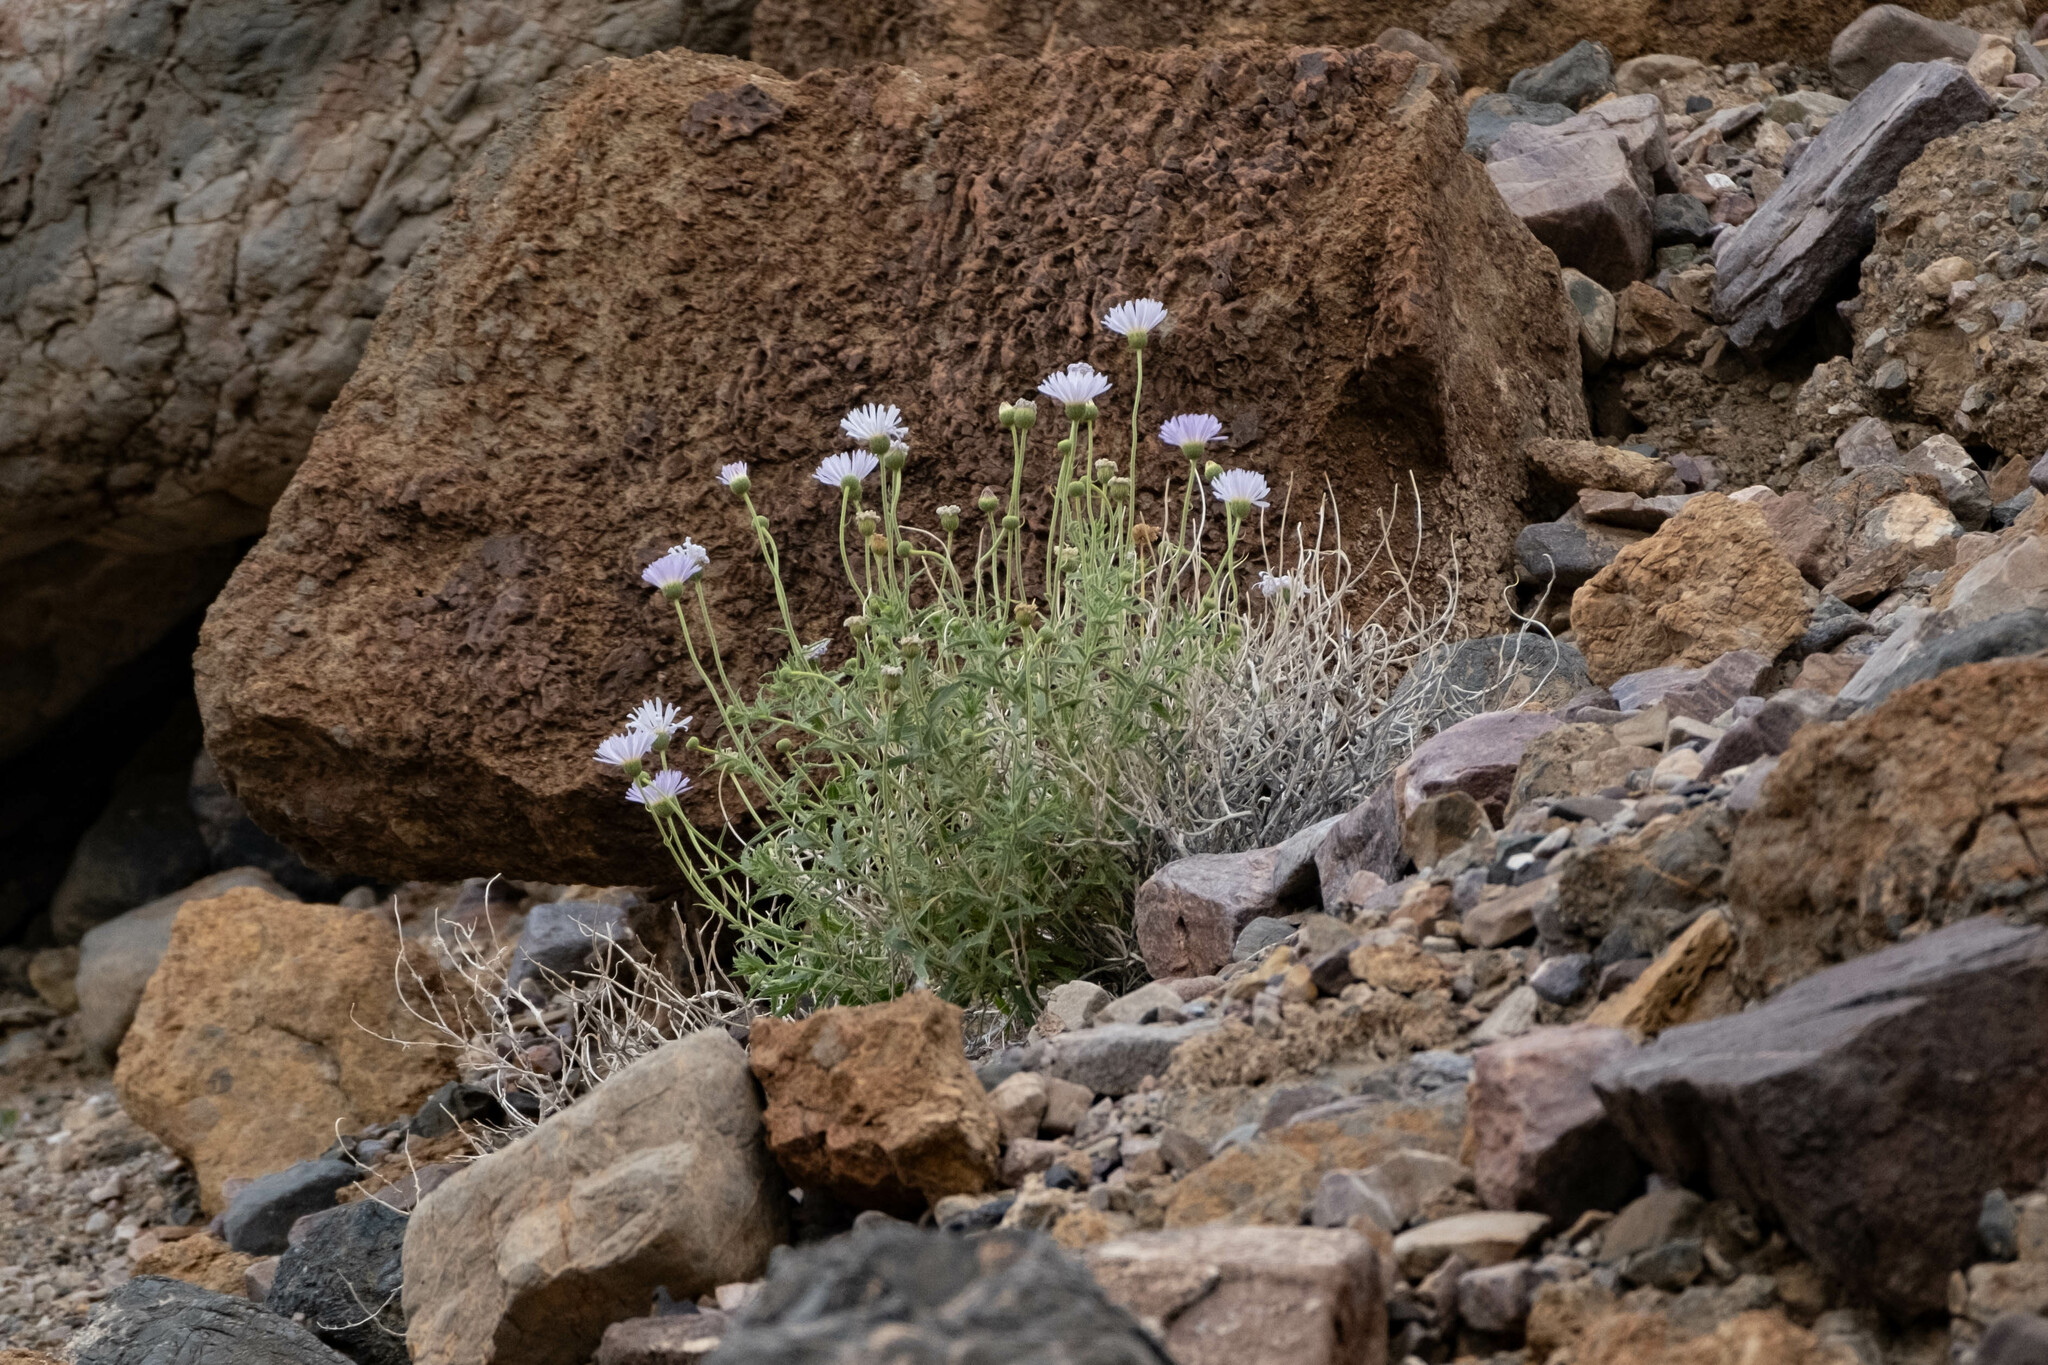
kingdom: Plantae
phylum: Tracheophyta
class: Magnoliopsida
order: Asterales
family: Asteraceae
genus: Xylorhiza
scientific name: Xylorhiza tortifolia
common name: Hurt-leaf woody-aster
